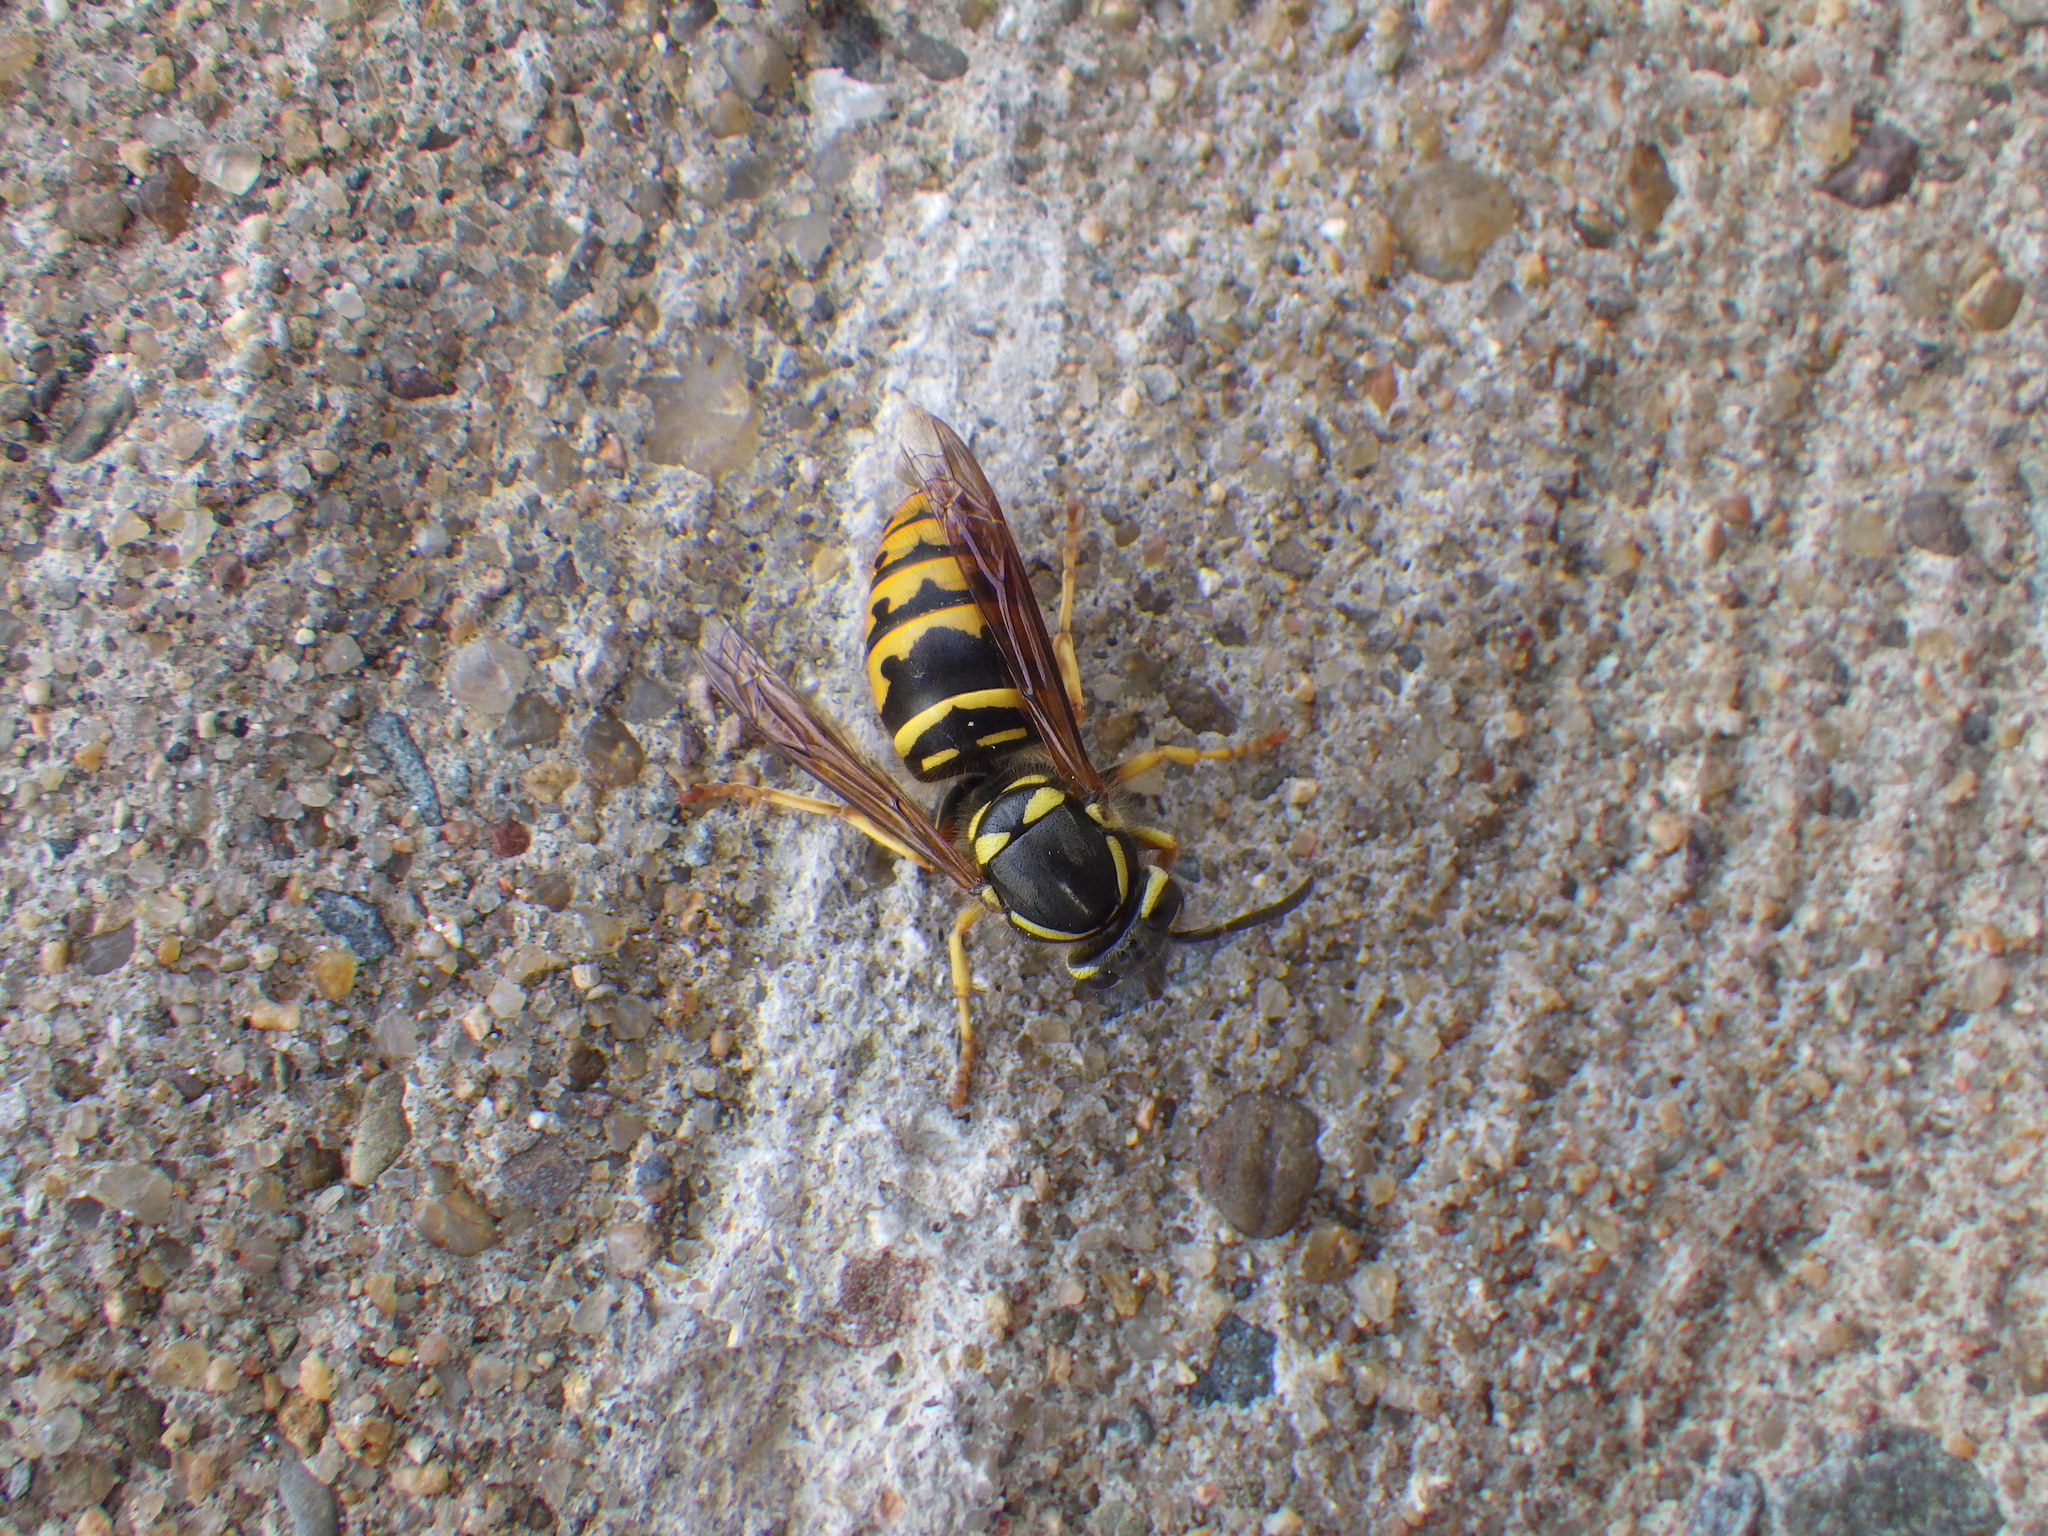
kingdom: Animalia
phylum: Arthropoda
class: Insecta
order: Hymenoptera
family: Vespidae
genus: Vespula
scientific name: Vespula maculifrons
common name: Eastern yellowjacket
